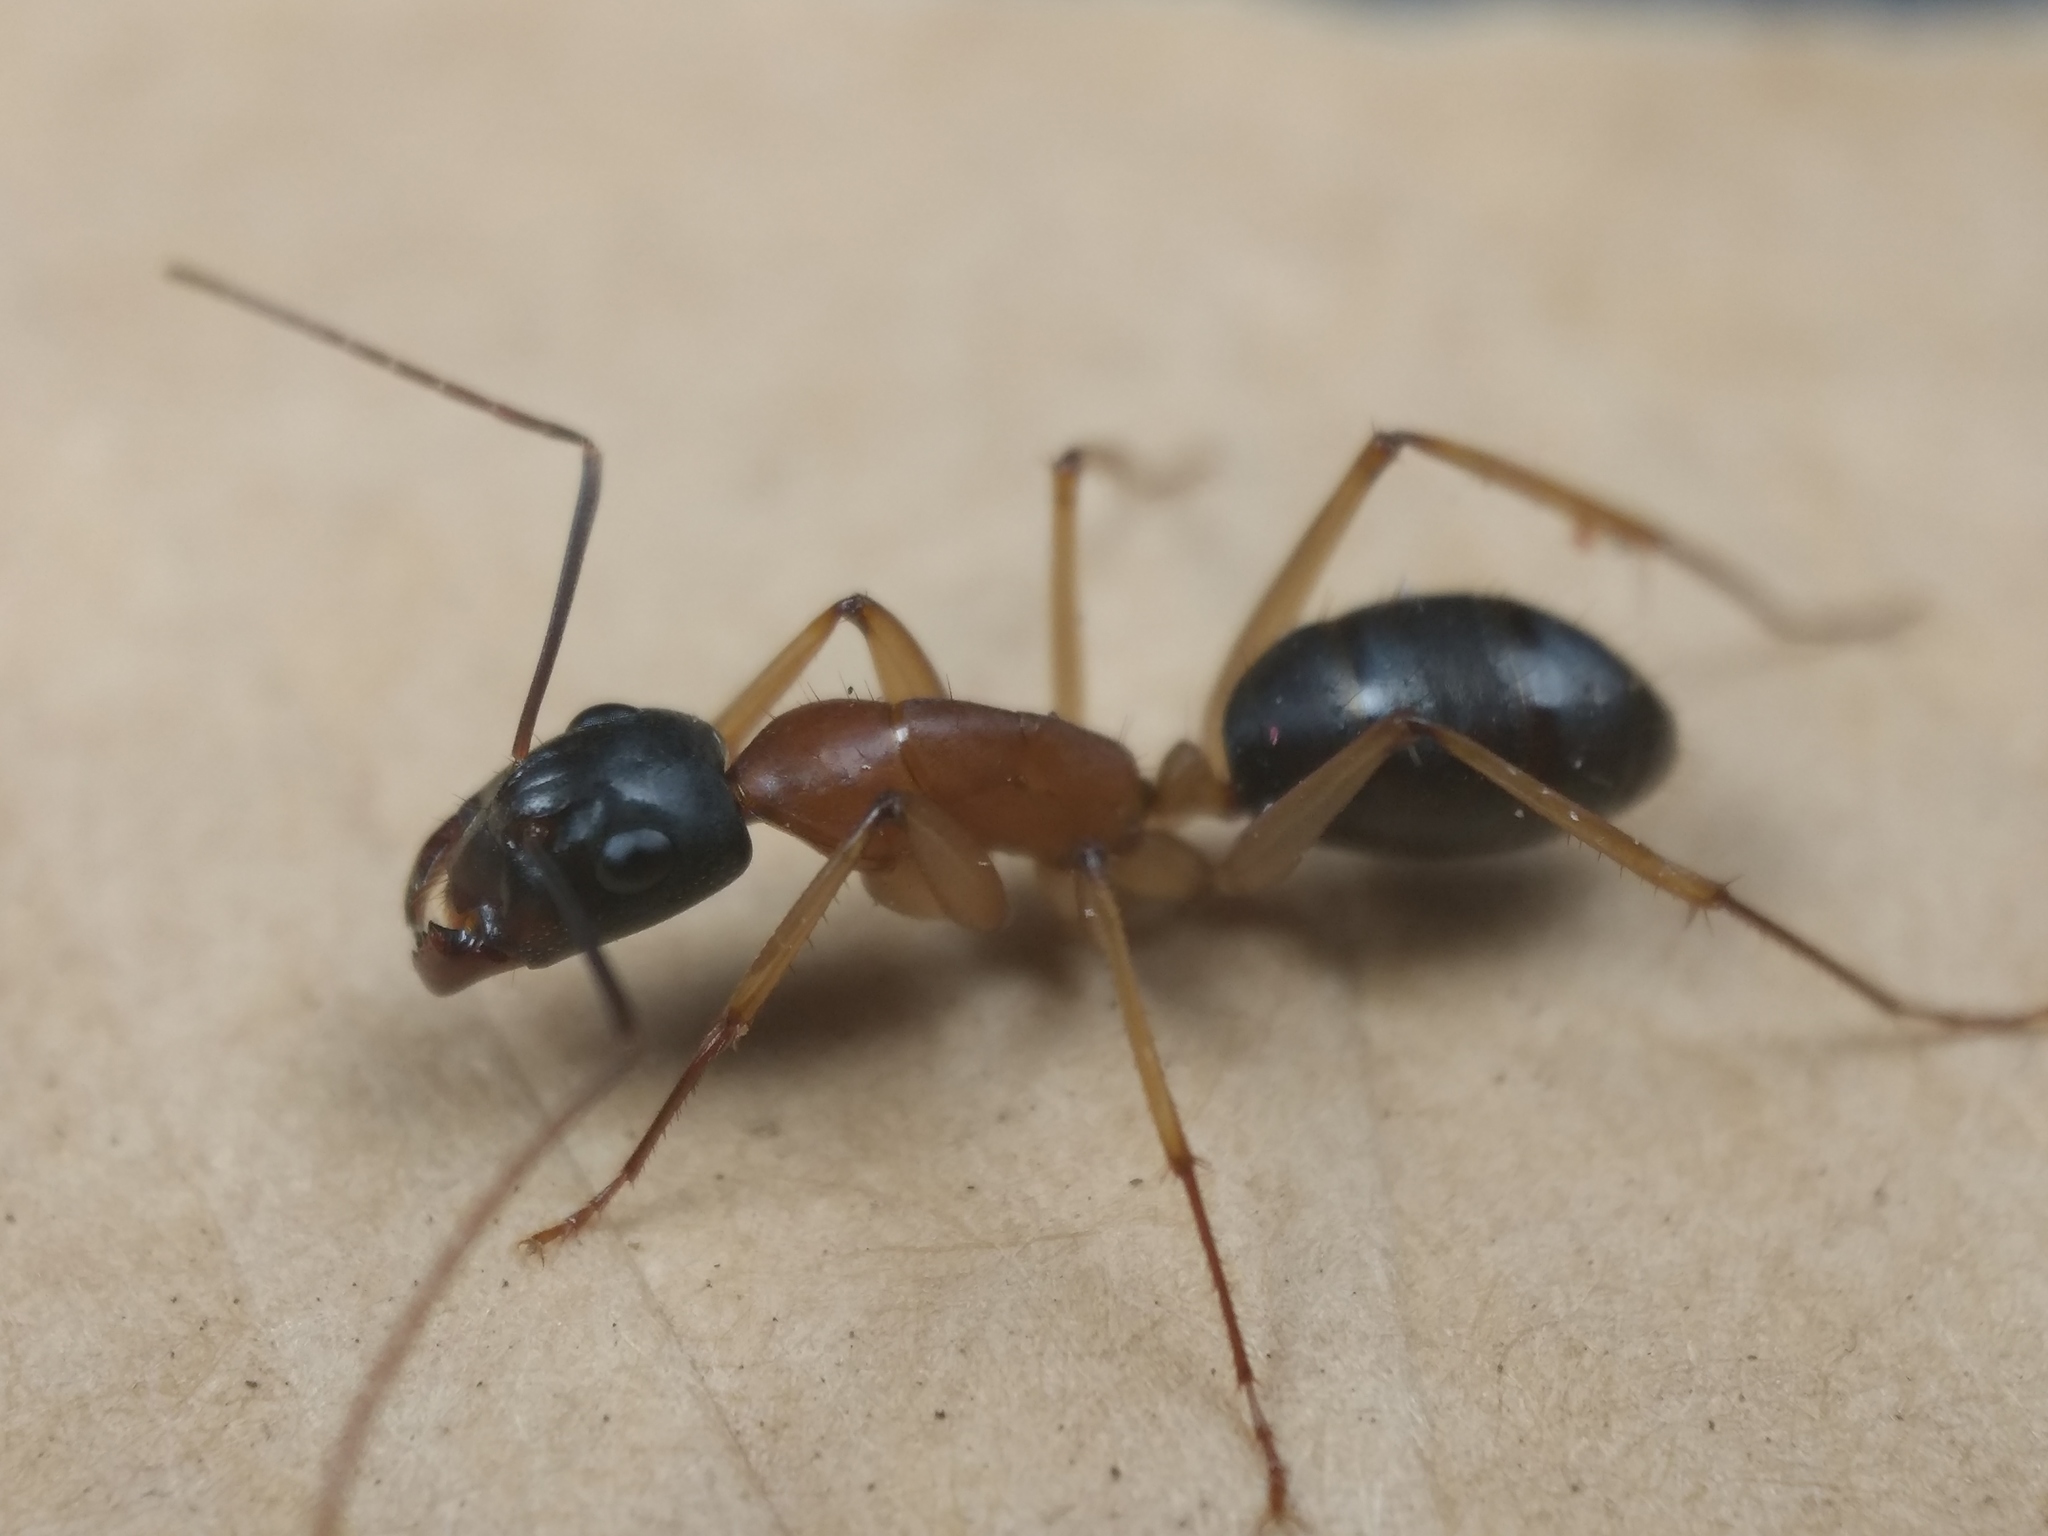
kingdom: Animalia
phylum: Arthropoda
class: Insecta
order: Hymenoptera
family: Formicidae
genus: Camponotus
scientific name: Camponotus nigriceps
